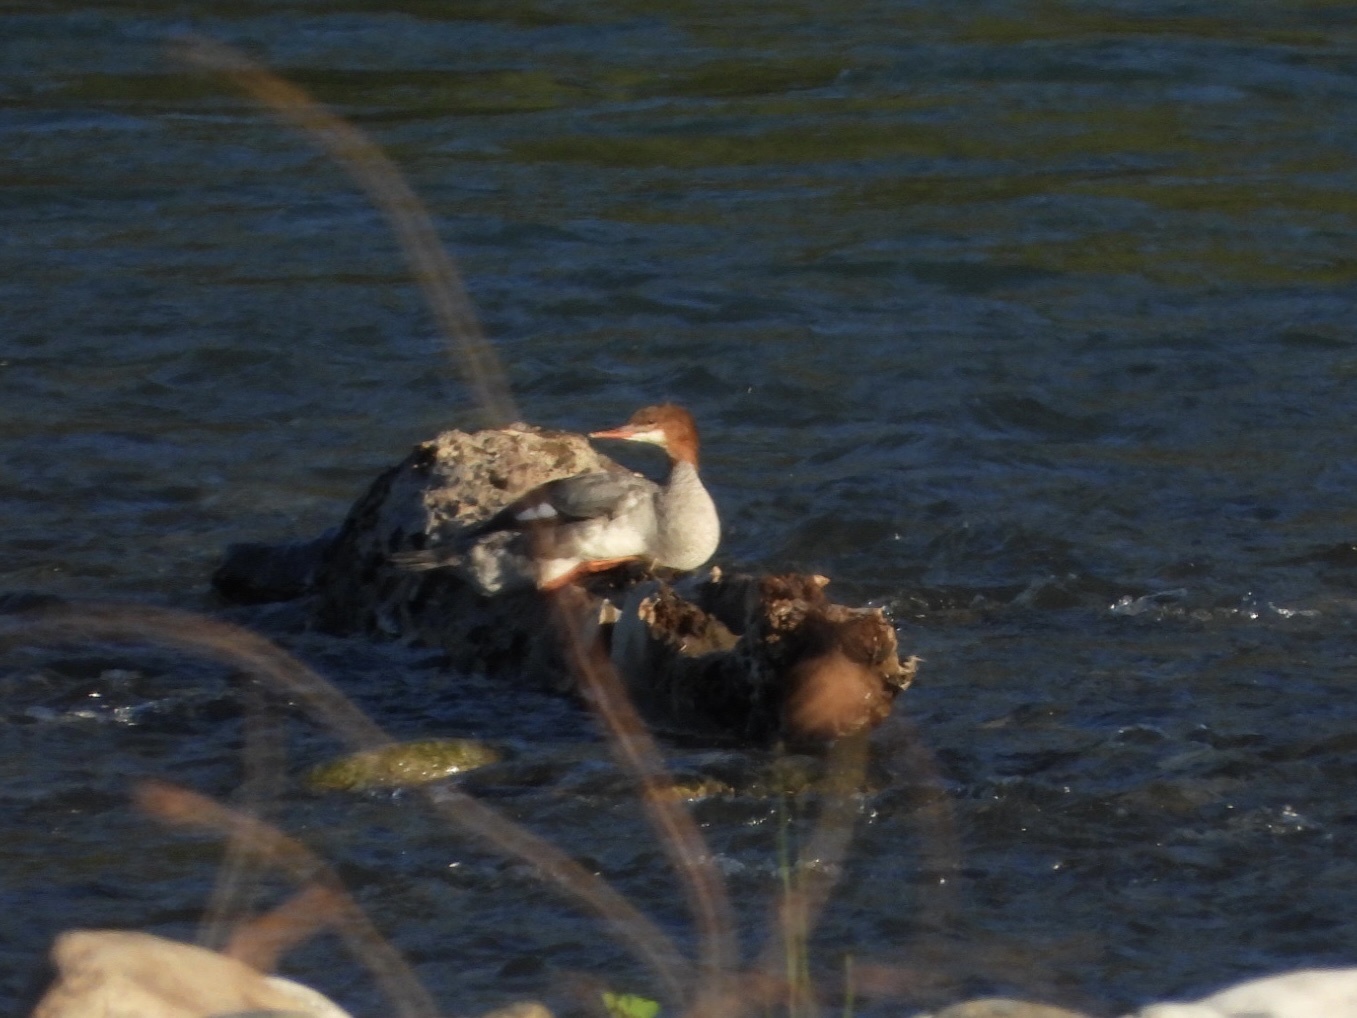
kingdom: Animalia
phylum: Chordata
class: Aves
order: Anseriformes
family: Anatidae
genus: Mergus
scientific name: Mergus merganser
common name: Common merganser
